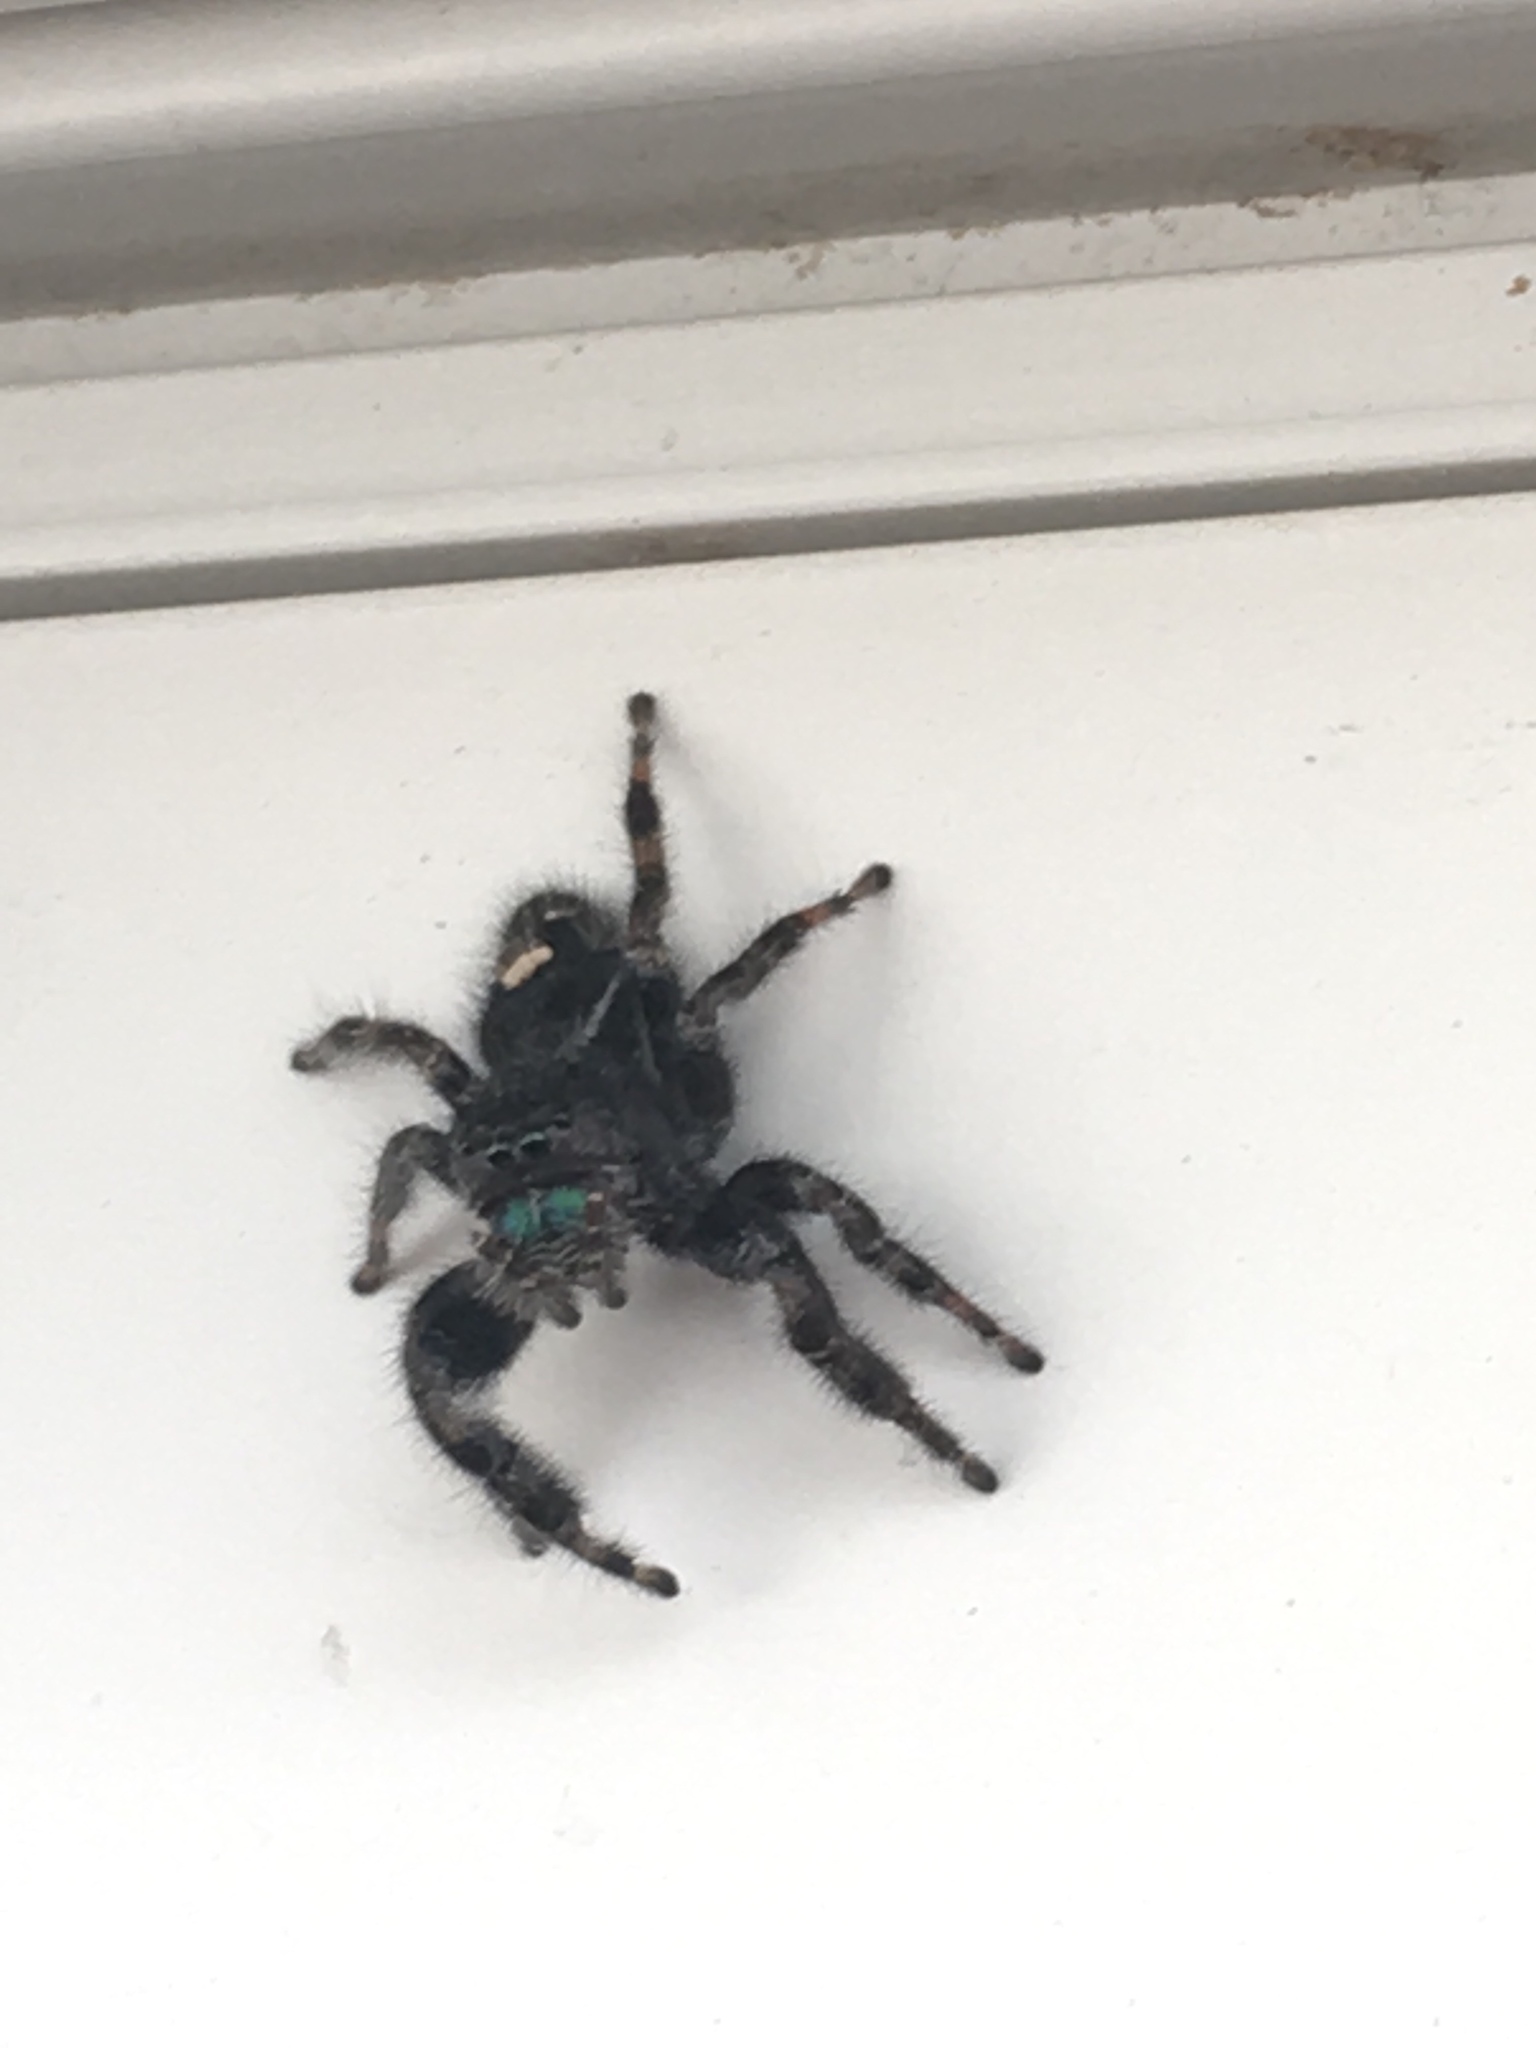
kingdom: Animalia
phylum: Arthropoda
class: Arachnida
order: Araneae
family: Salticidae
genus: Phidippus
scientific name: Phidippus audax
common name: Bold jumper
